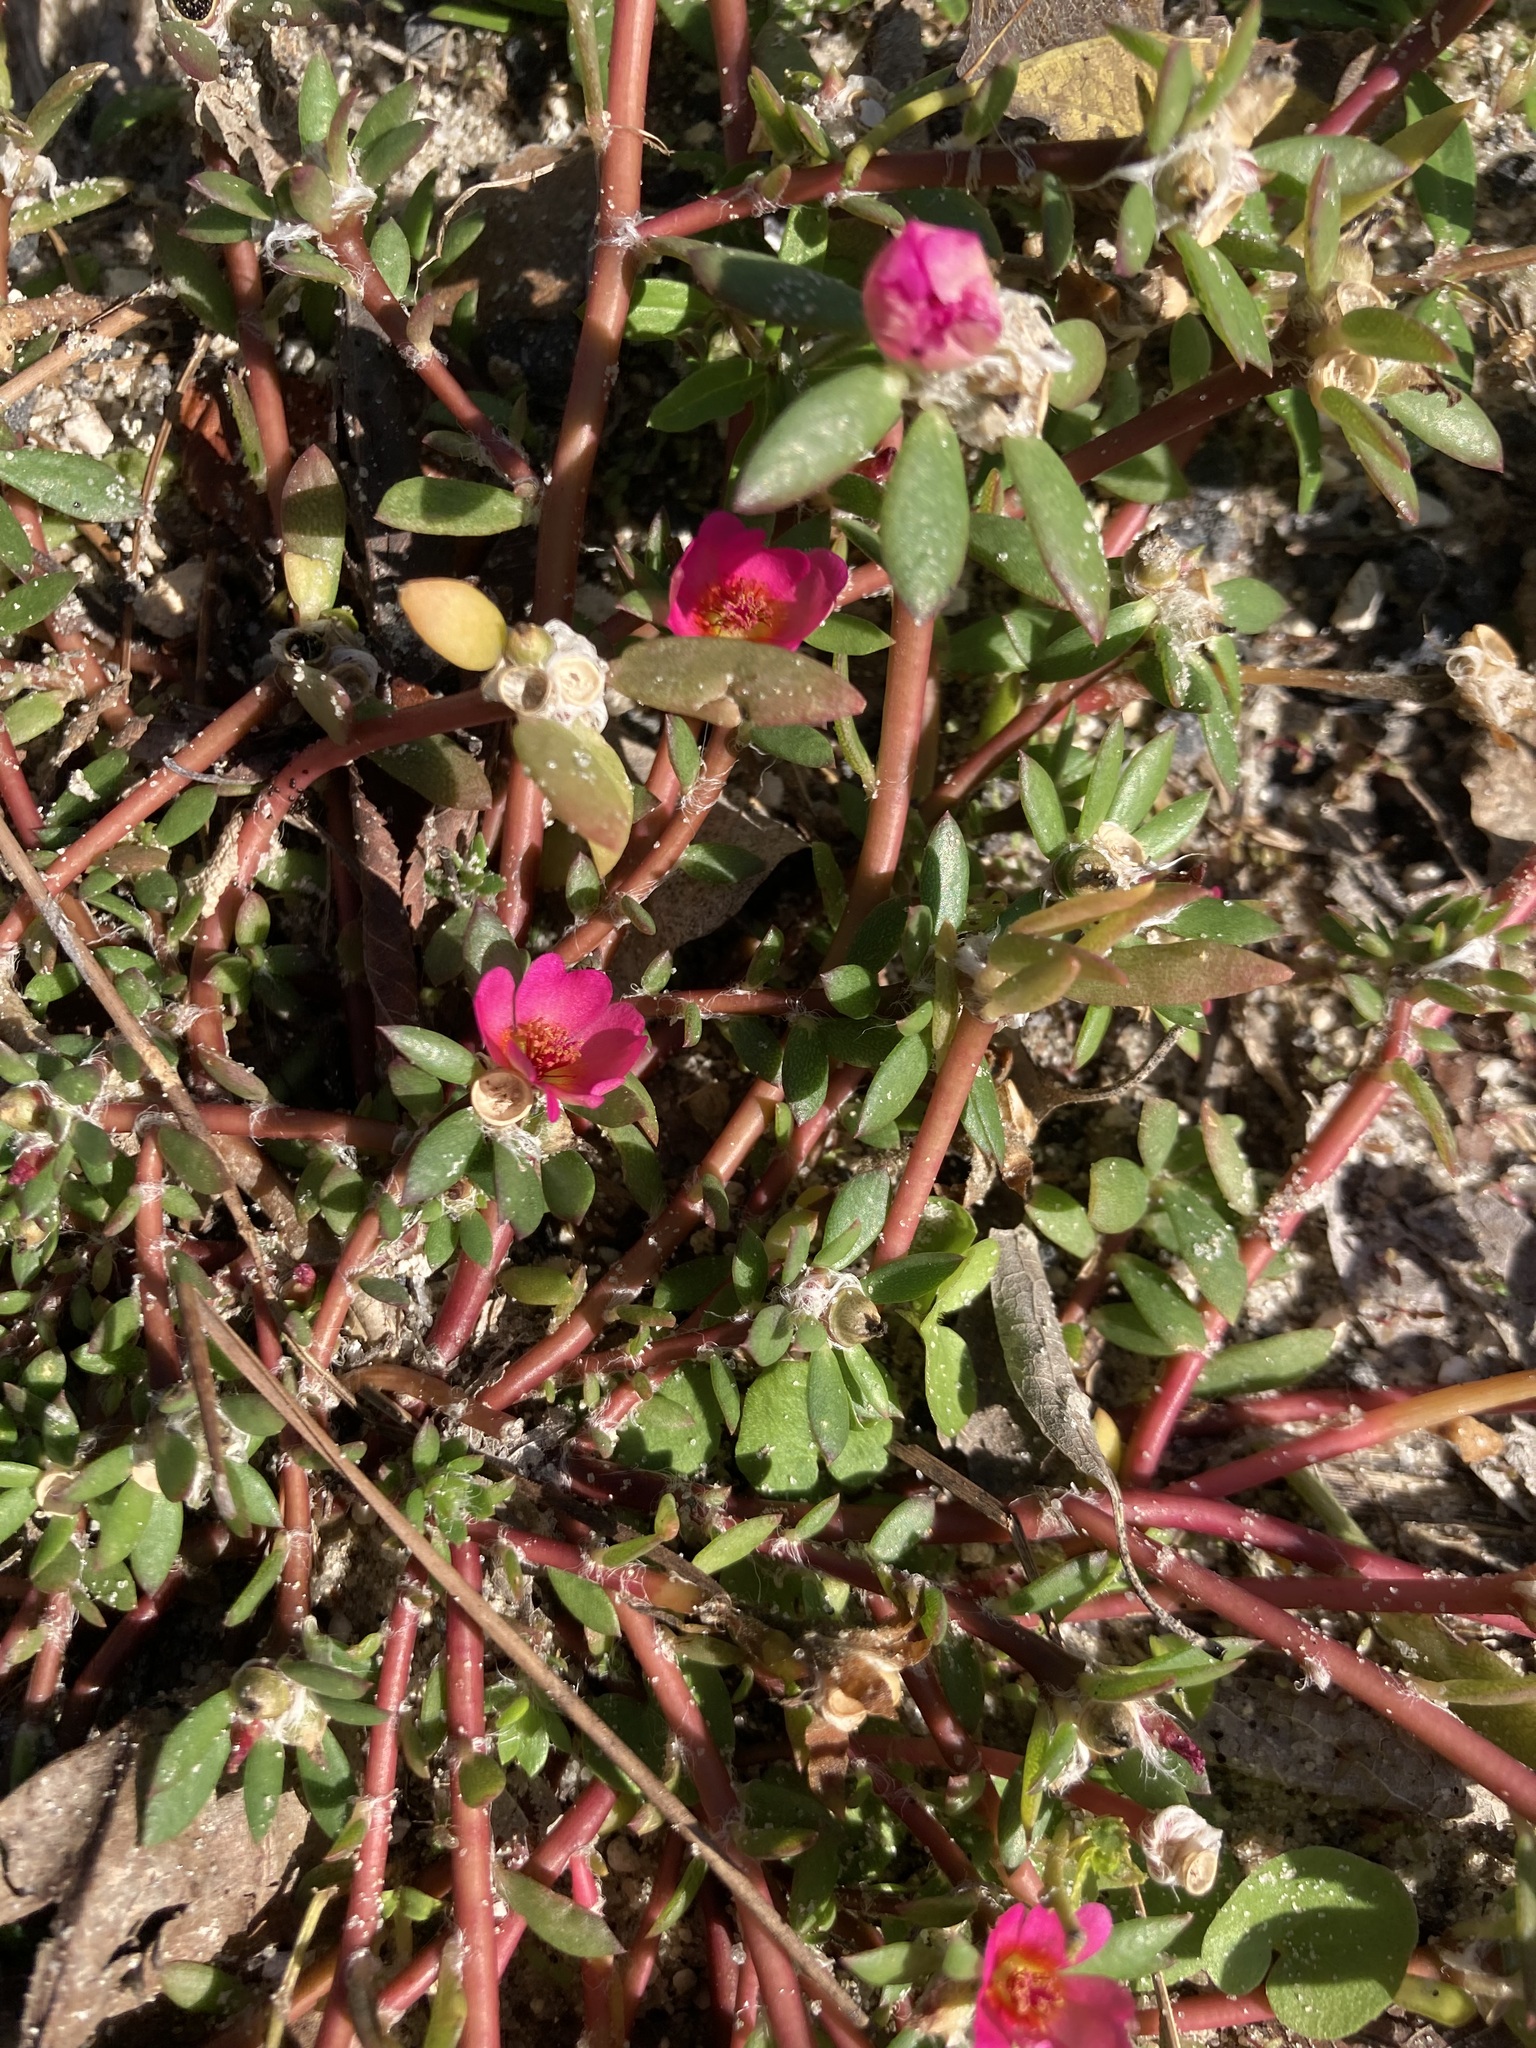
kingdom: Plantae
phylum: Tracheophyta
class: Magnoliopsida
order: Caryophyllales
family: Portulacaceae
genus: Portulaca
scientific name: Portulaca amilis
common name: Paraguayan purslane
